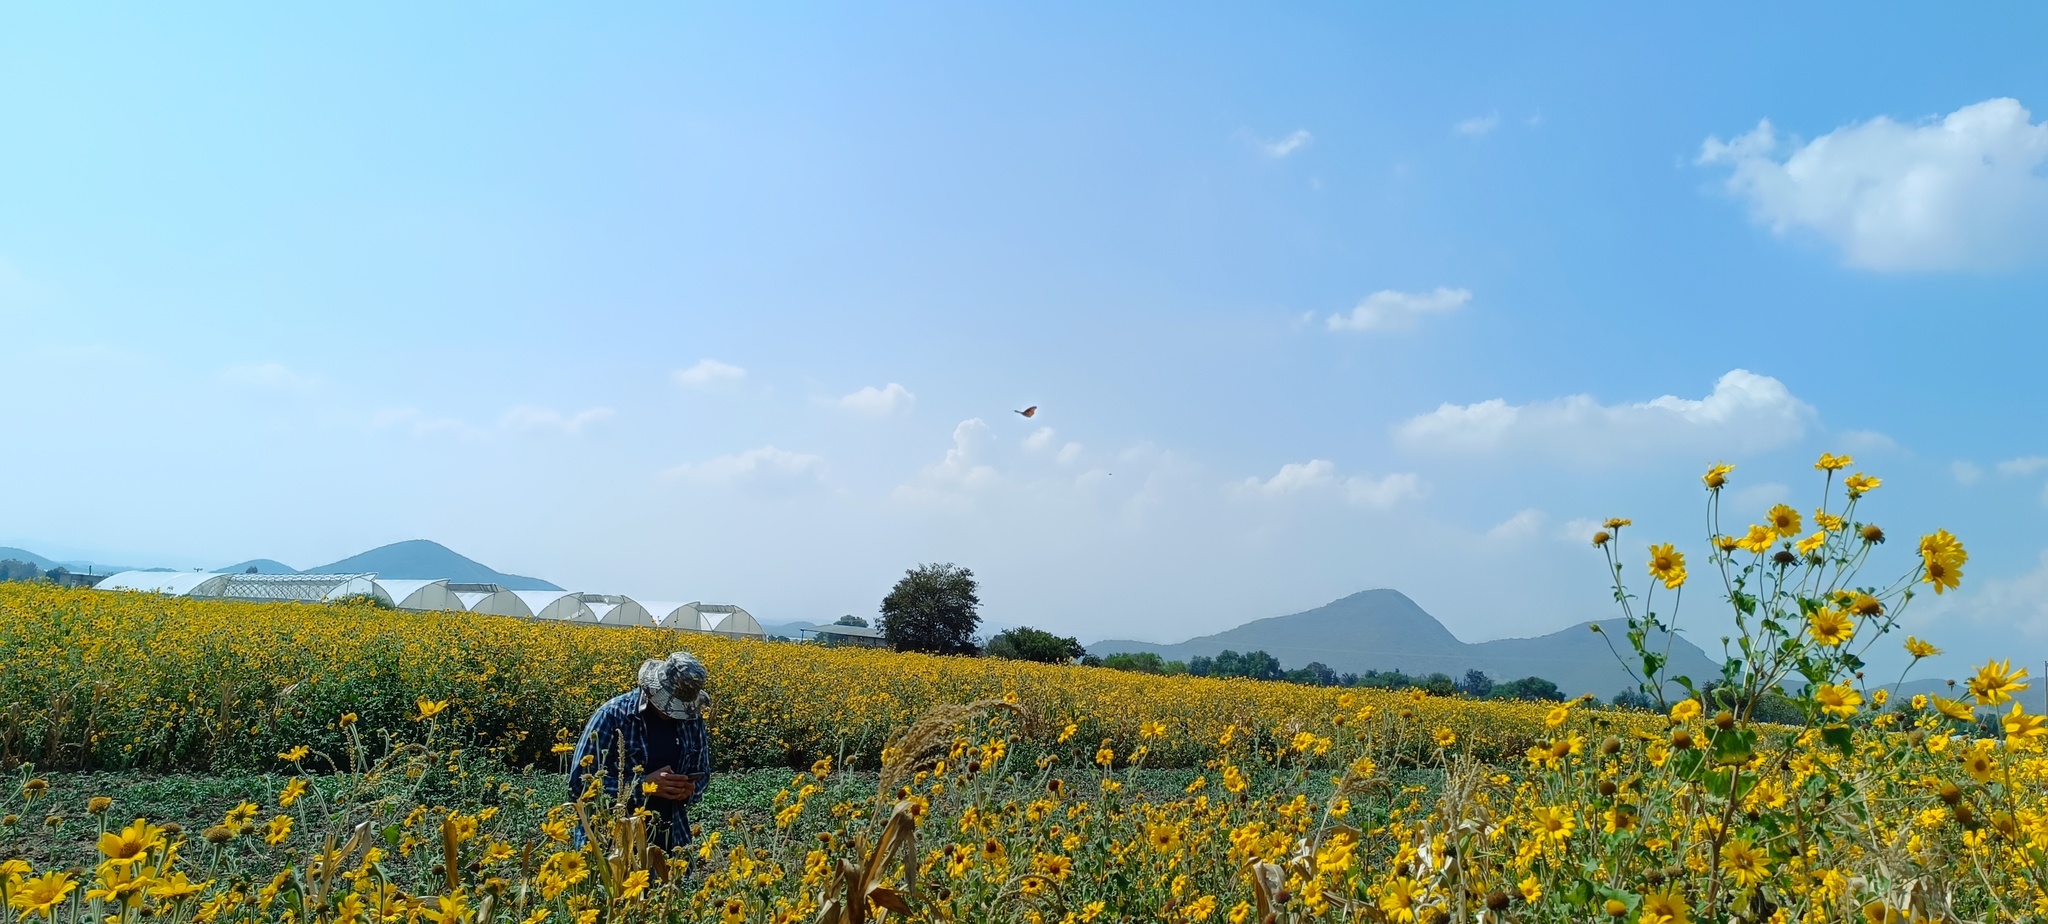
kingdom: Animalia
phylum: Arthropoda
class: Insecta
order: Lepidoptera
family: Nymphalidae
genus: Danaus
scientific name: Danaus plexippus
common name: Monarch
